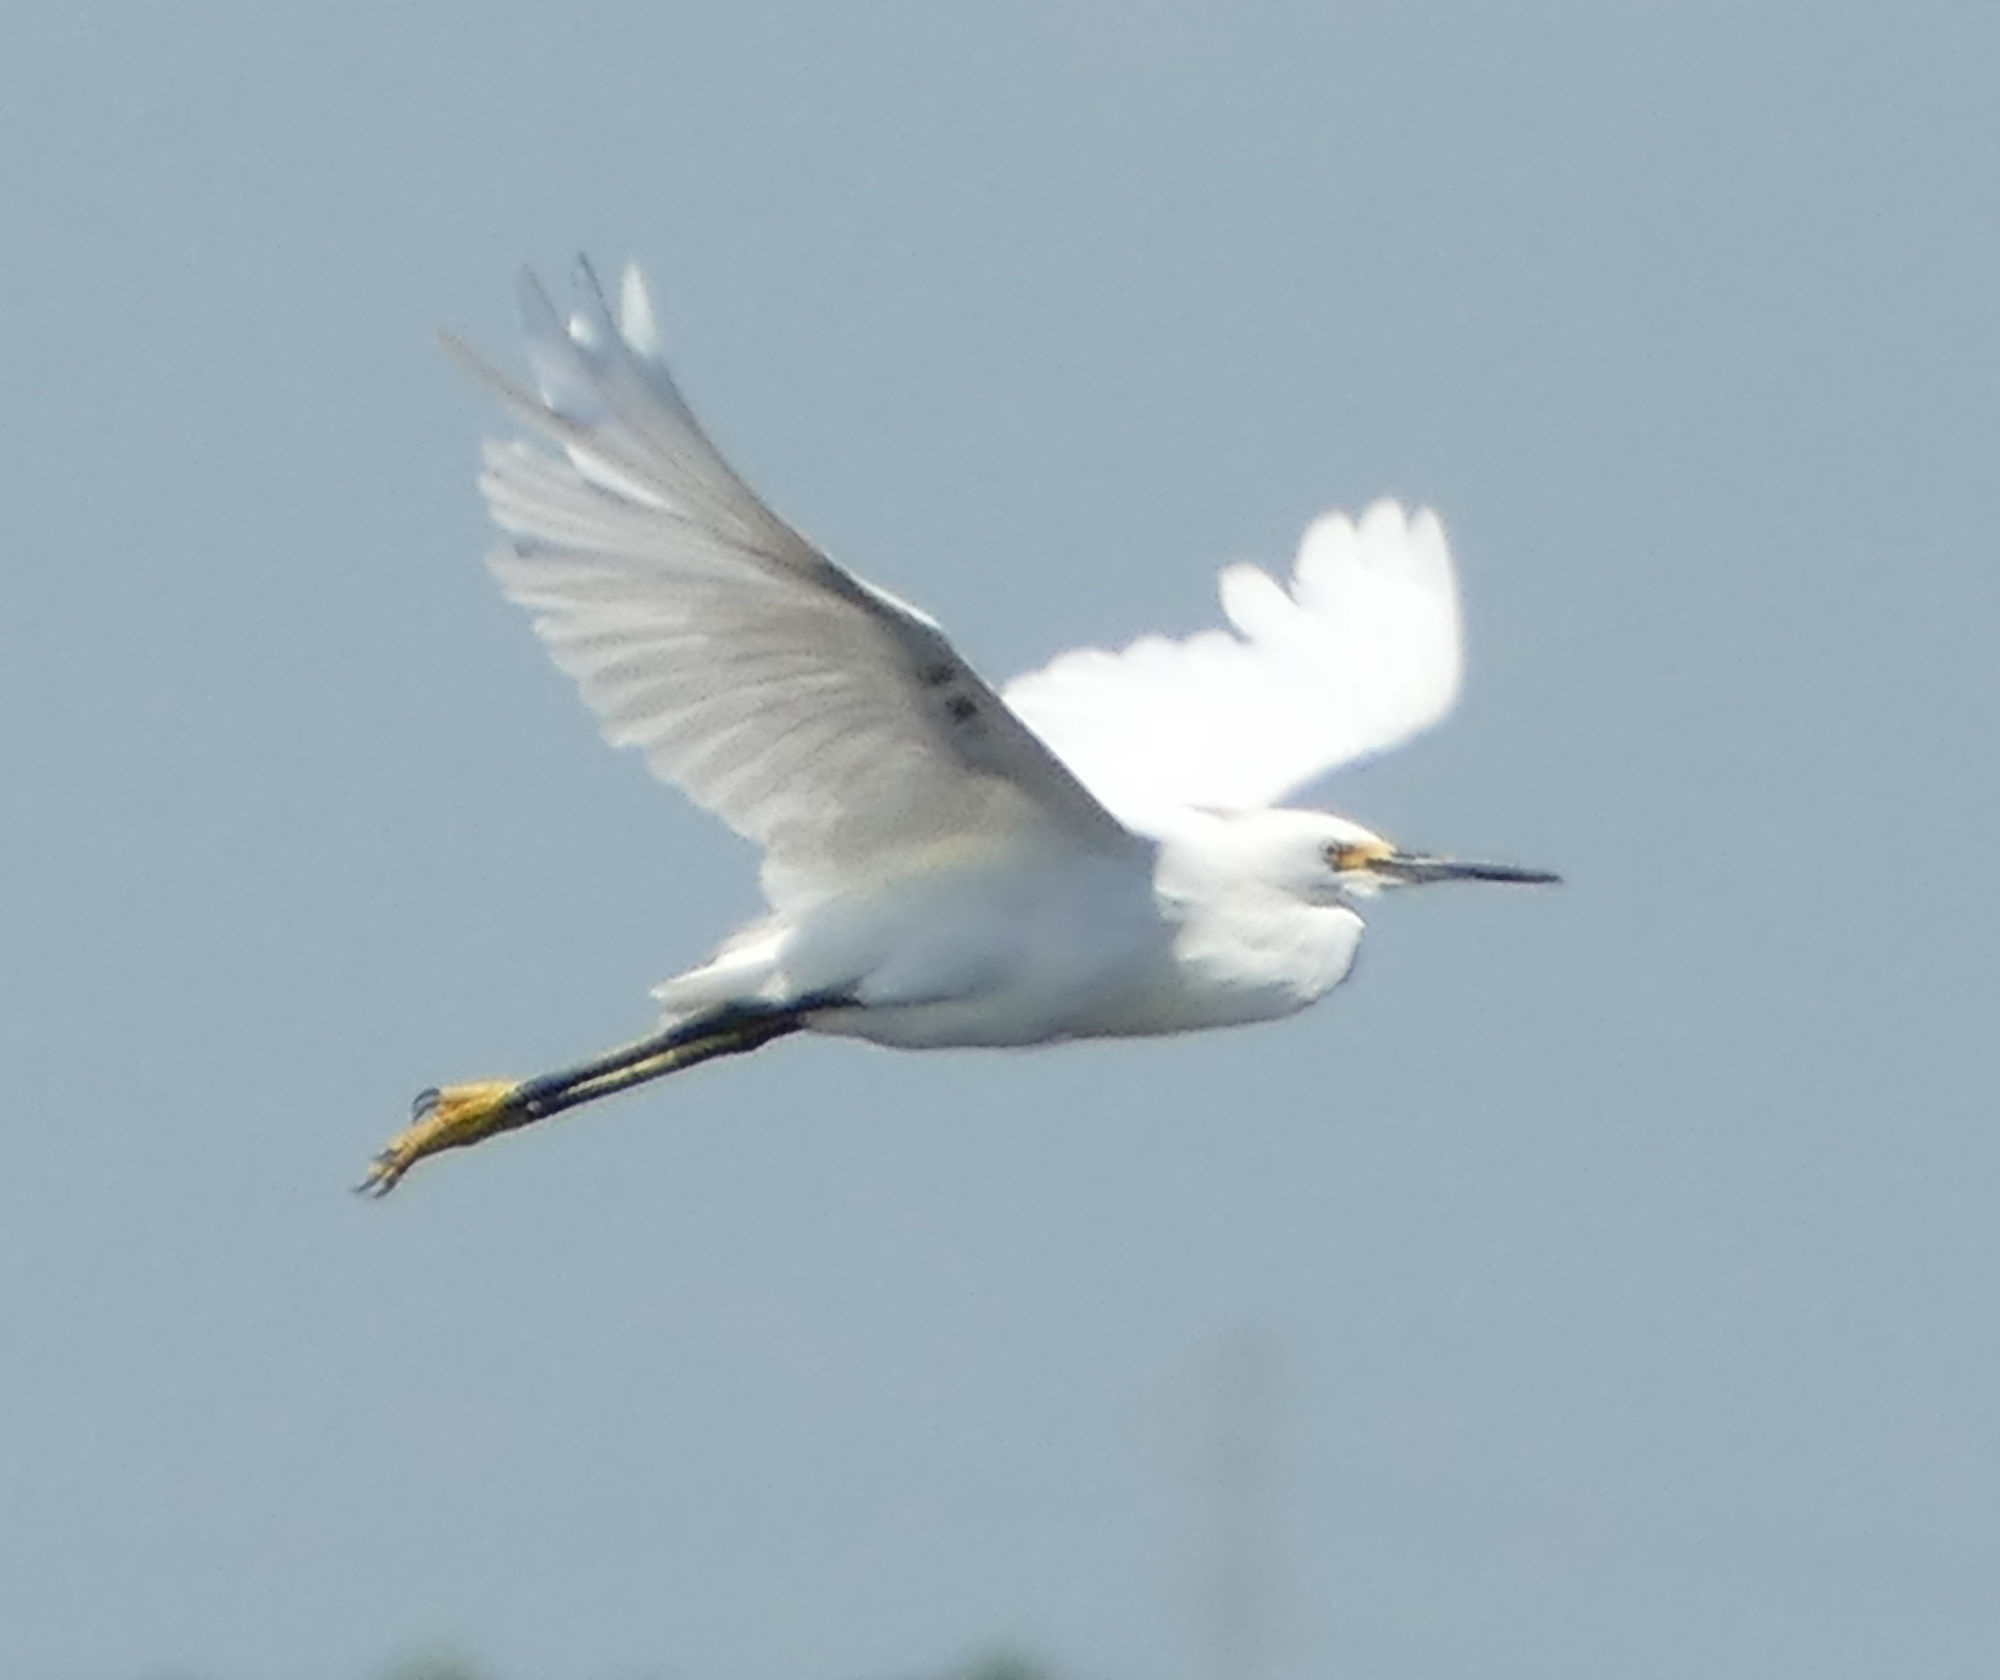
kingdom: Animalia
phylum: Chordata
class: Aves
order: Pelecaniformes
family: Ardeidae
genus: Egretta
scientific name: Egretta thula
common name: Snowy egret
